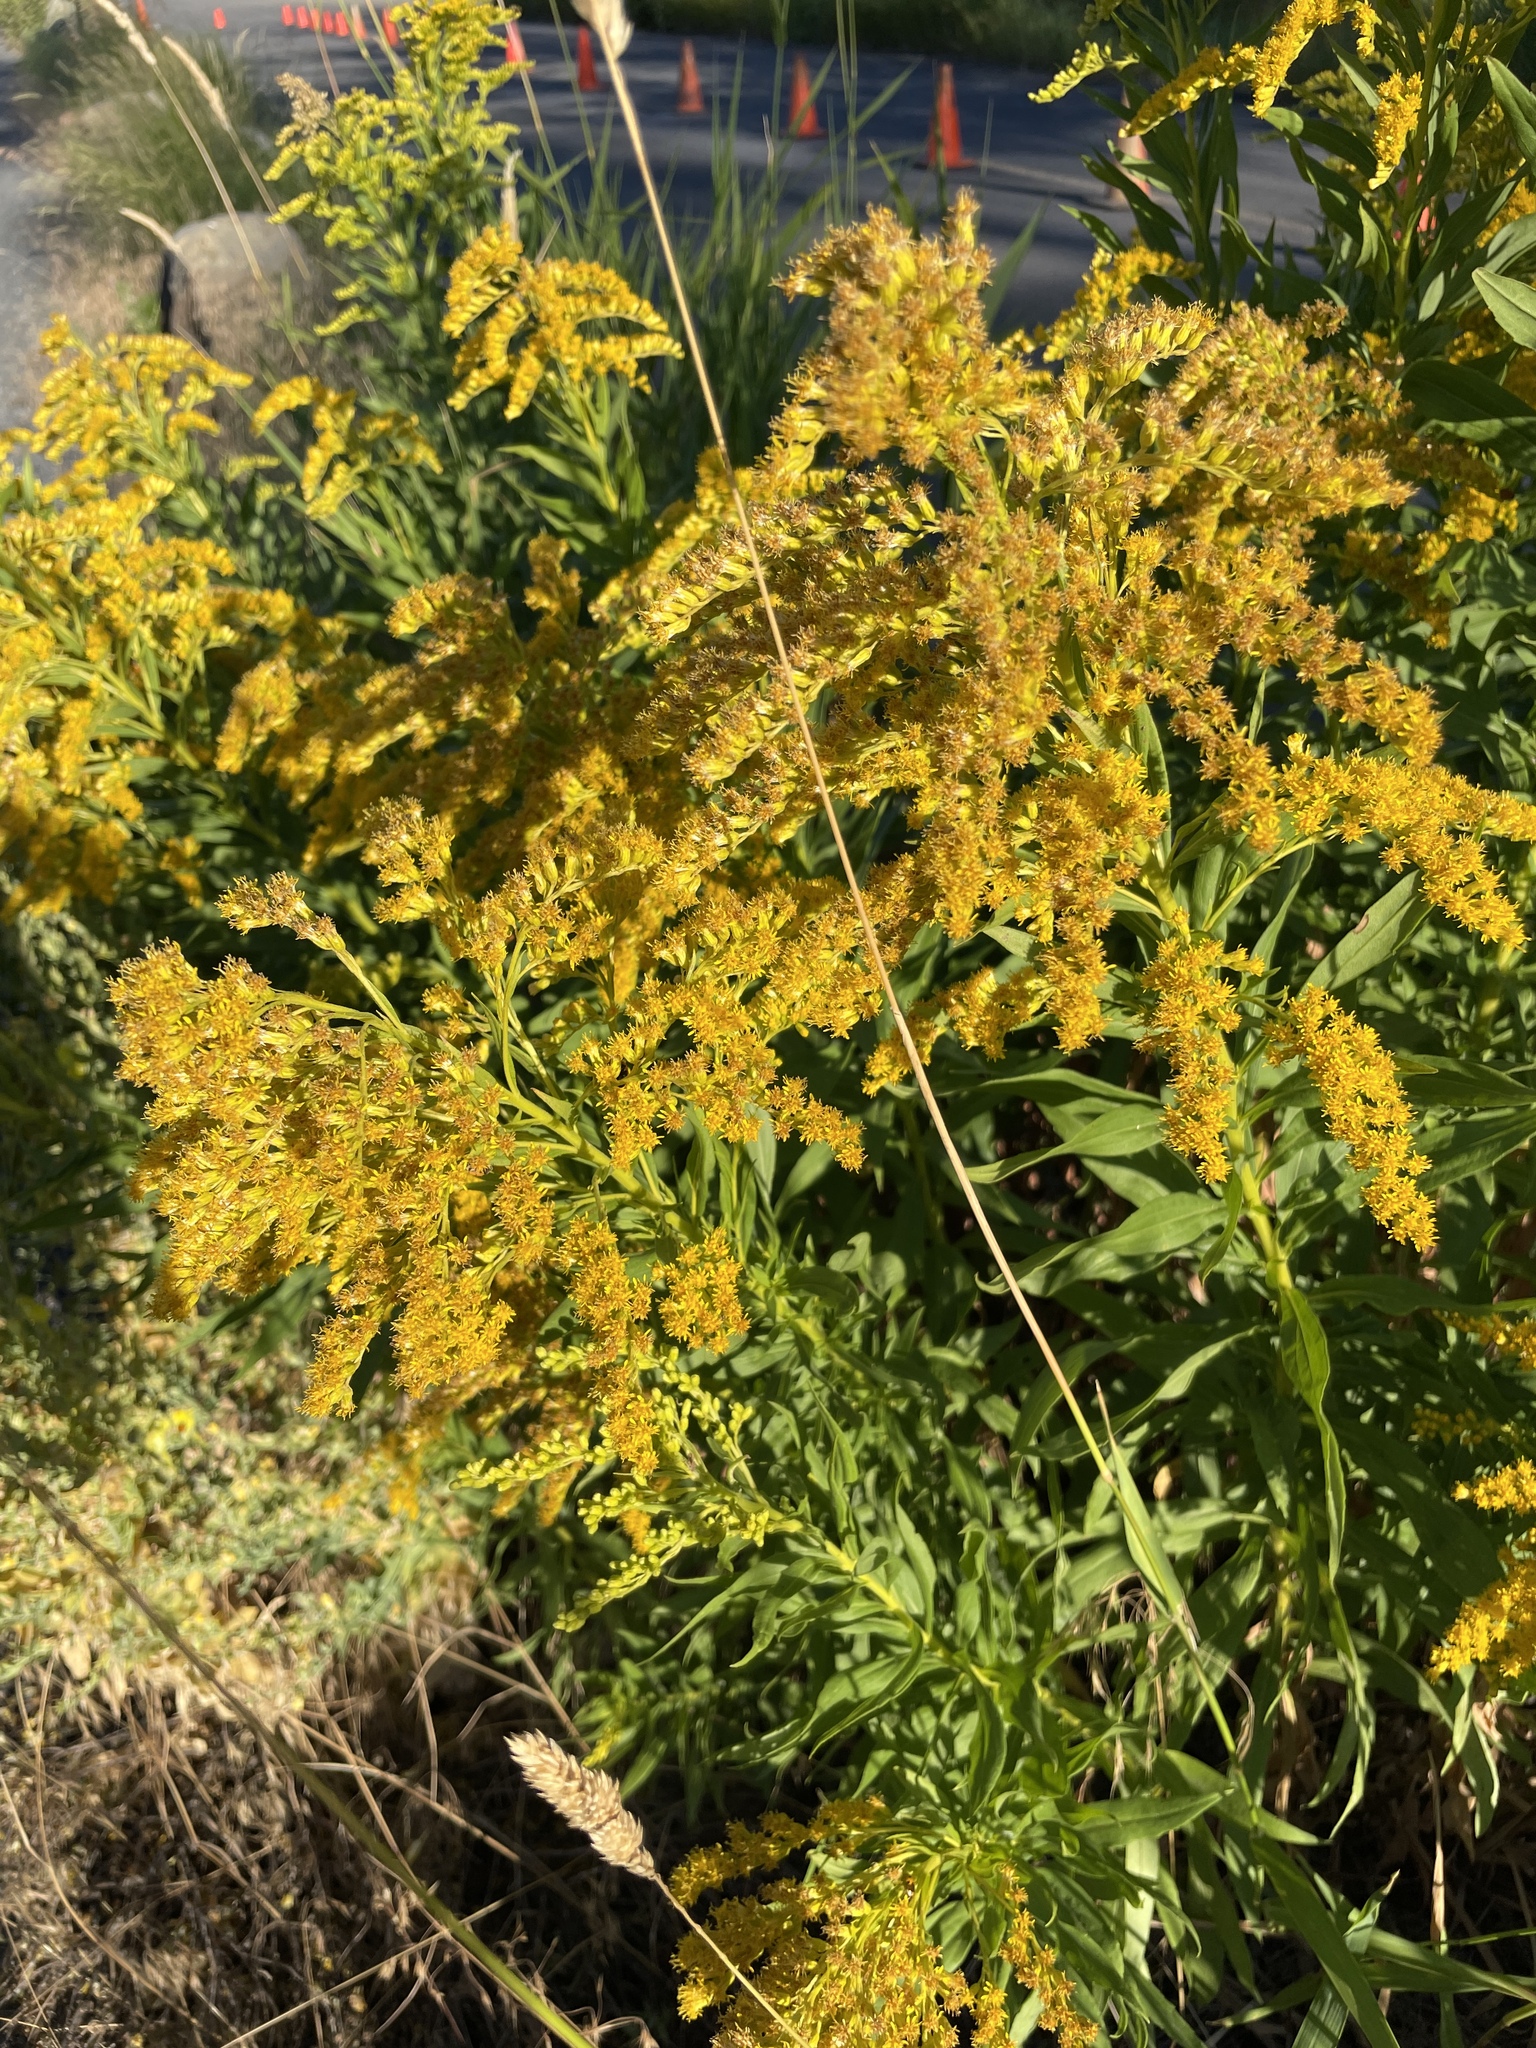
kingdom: Plantae
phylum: Tracheophyta
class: Magnoliopsida
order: Asterales
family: Asteraceae
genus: Solidago
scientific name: Solidago canadensis
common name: Canada goldenrod
